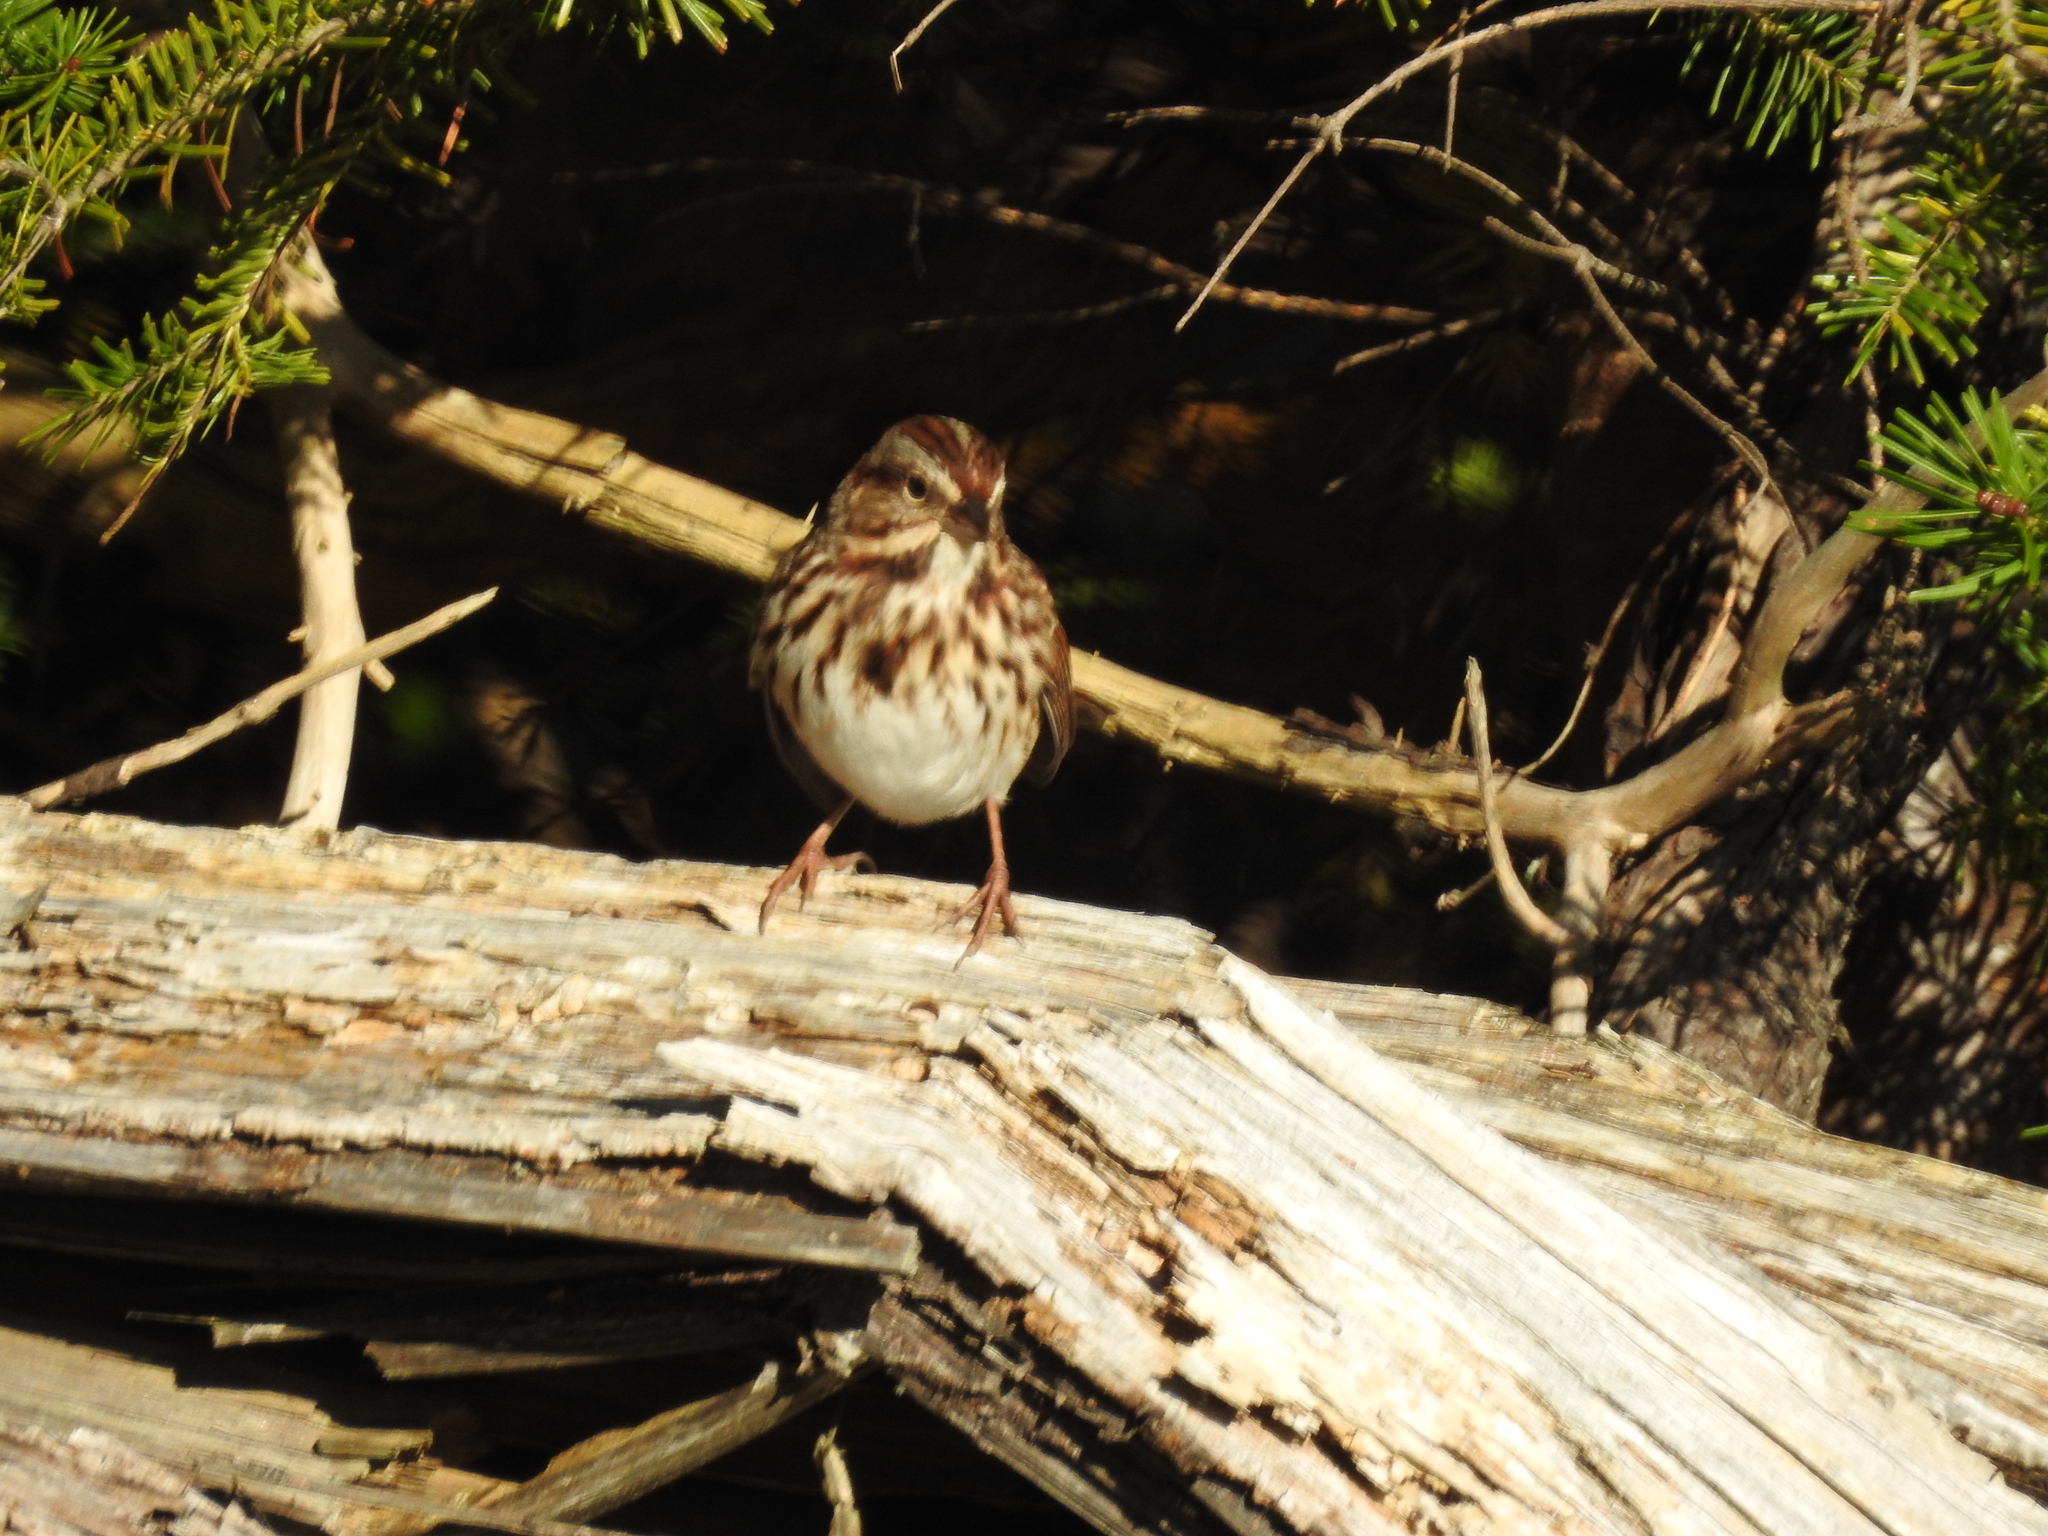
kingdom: Animalia
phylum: Chordata
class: Aves
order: Passeriformes
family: Passerellidae
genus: Melospiza
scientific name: Melospiza melodia
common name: Song sparrow
